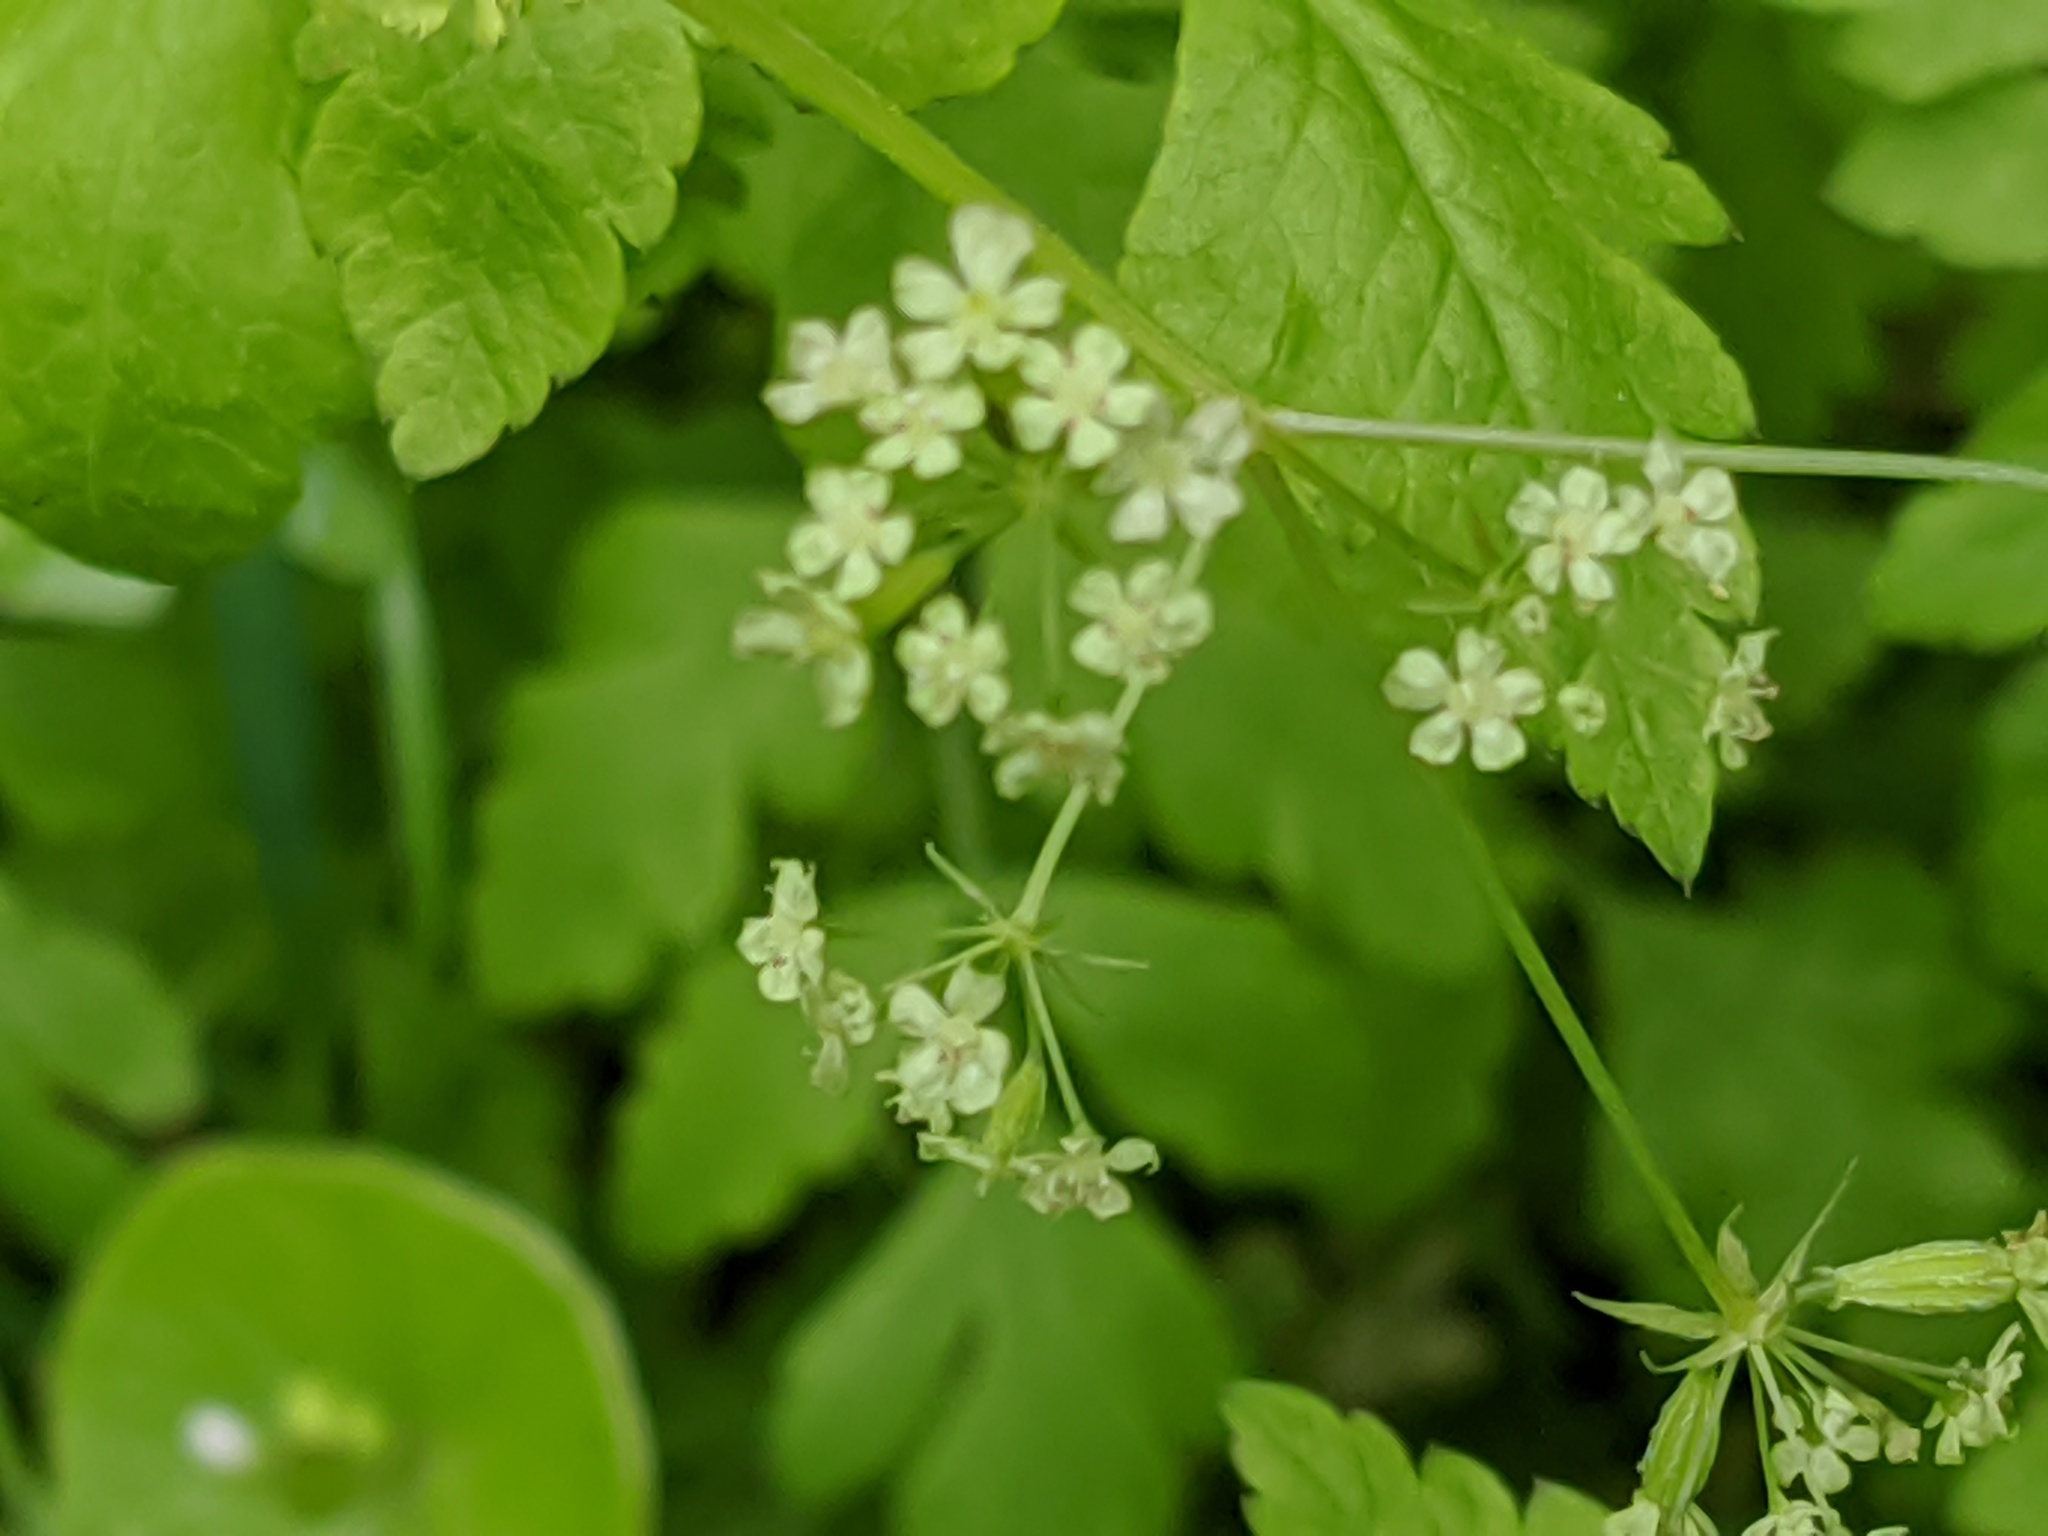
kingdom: Plantae
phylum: Tracheophyta
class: Magnoliopsida
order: Apiales
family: Apiaceae
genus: Osmorhiza
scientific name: Osmorhiza brachypoda
